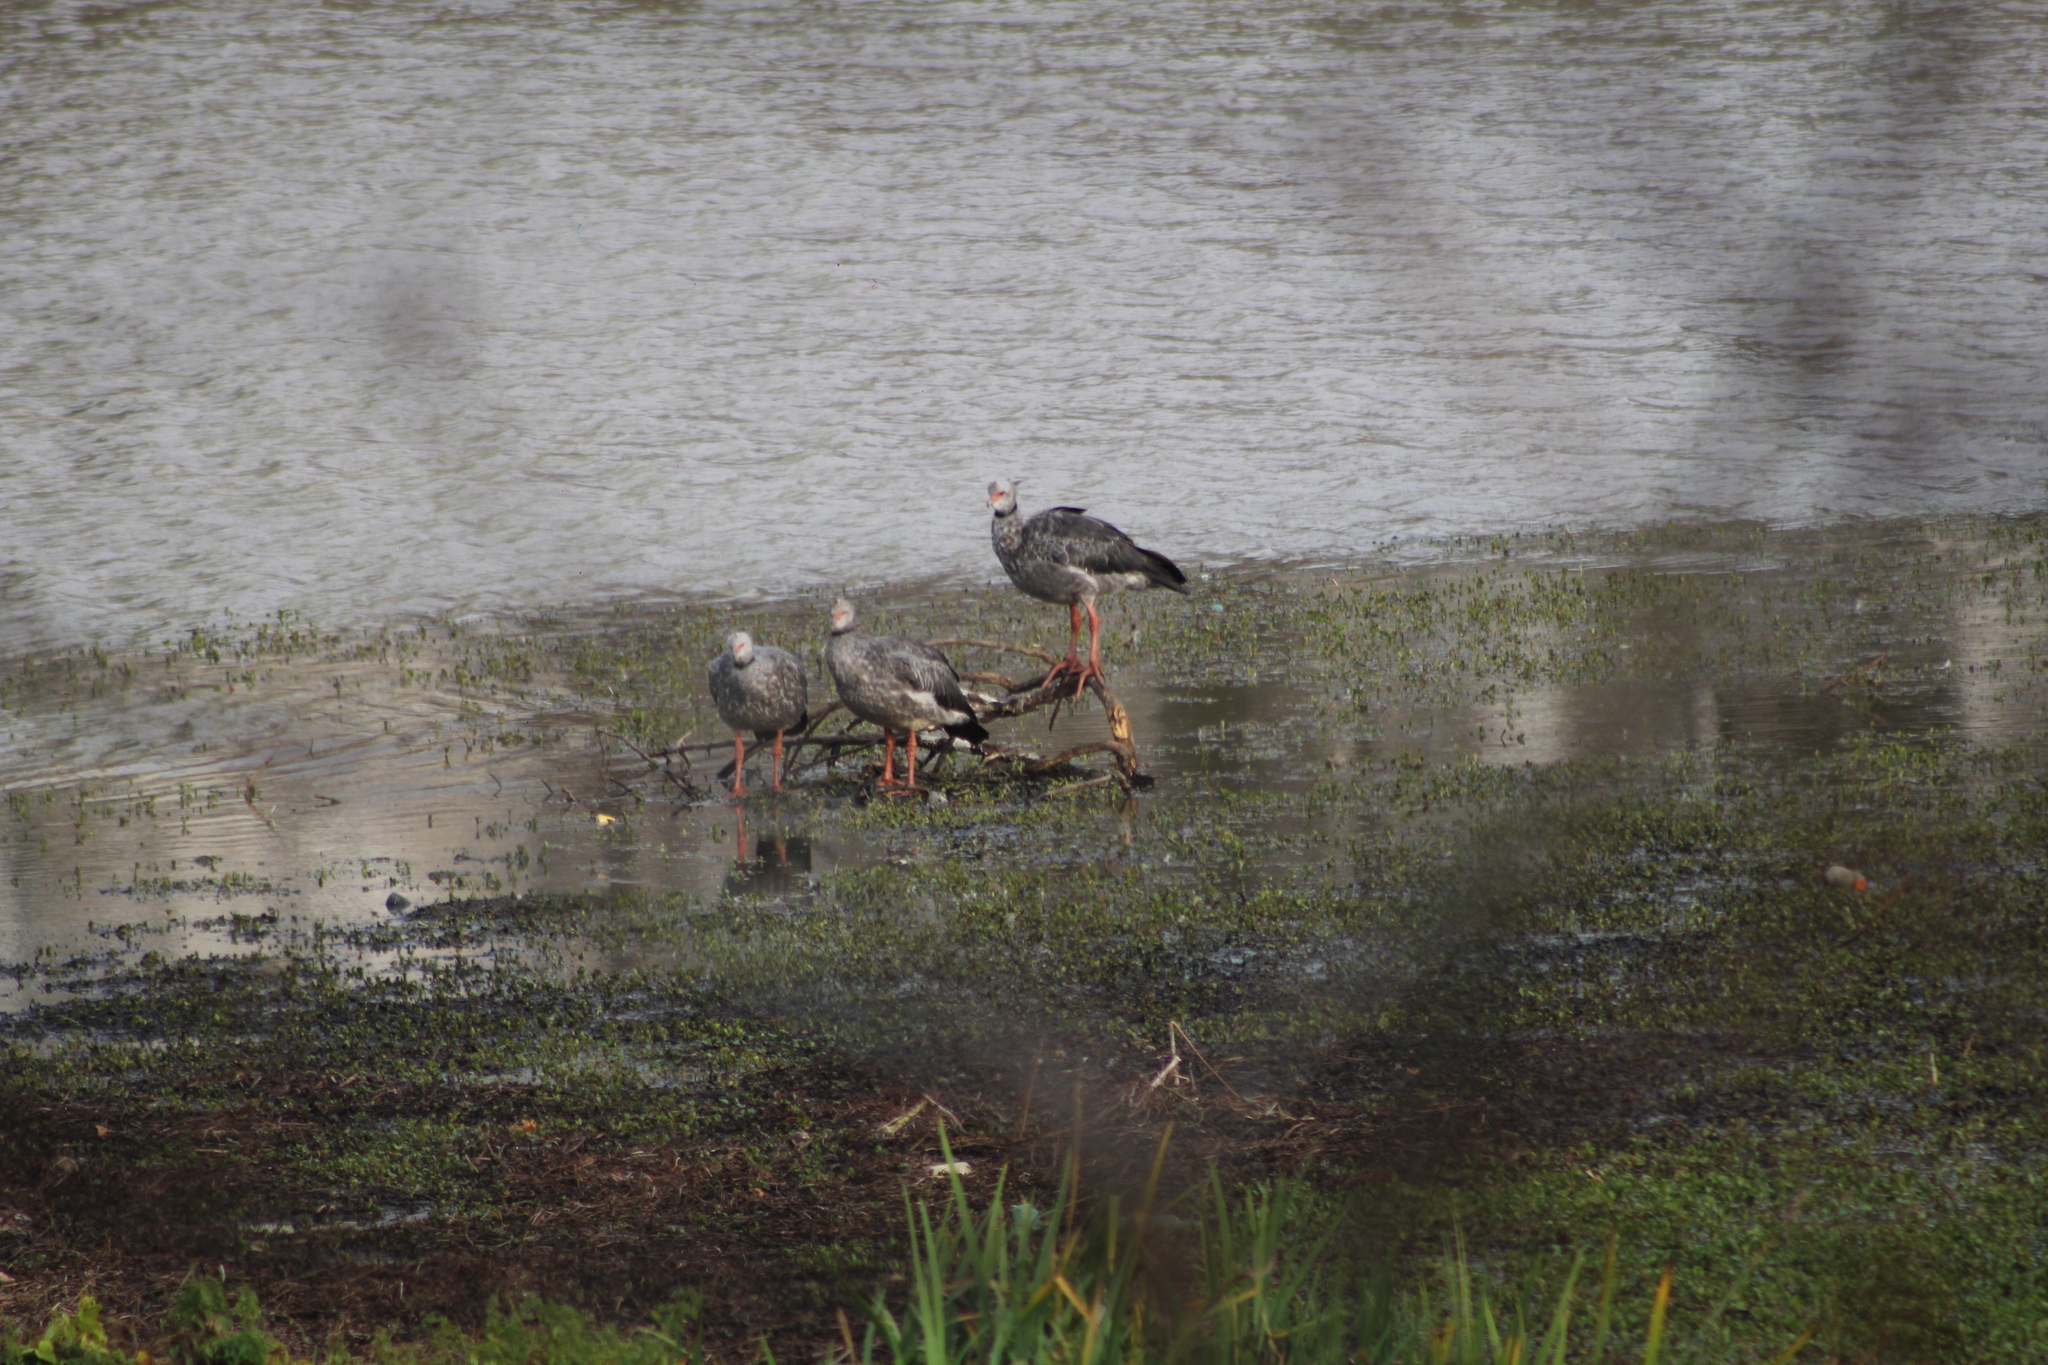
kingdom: Animalia
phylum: Chordata
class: Aves
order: Anseriformes
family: Anhimidae
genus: Chauna
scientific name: Chauna torquata
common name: Southern screamer
